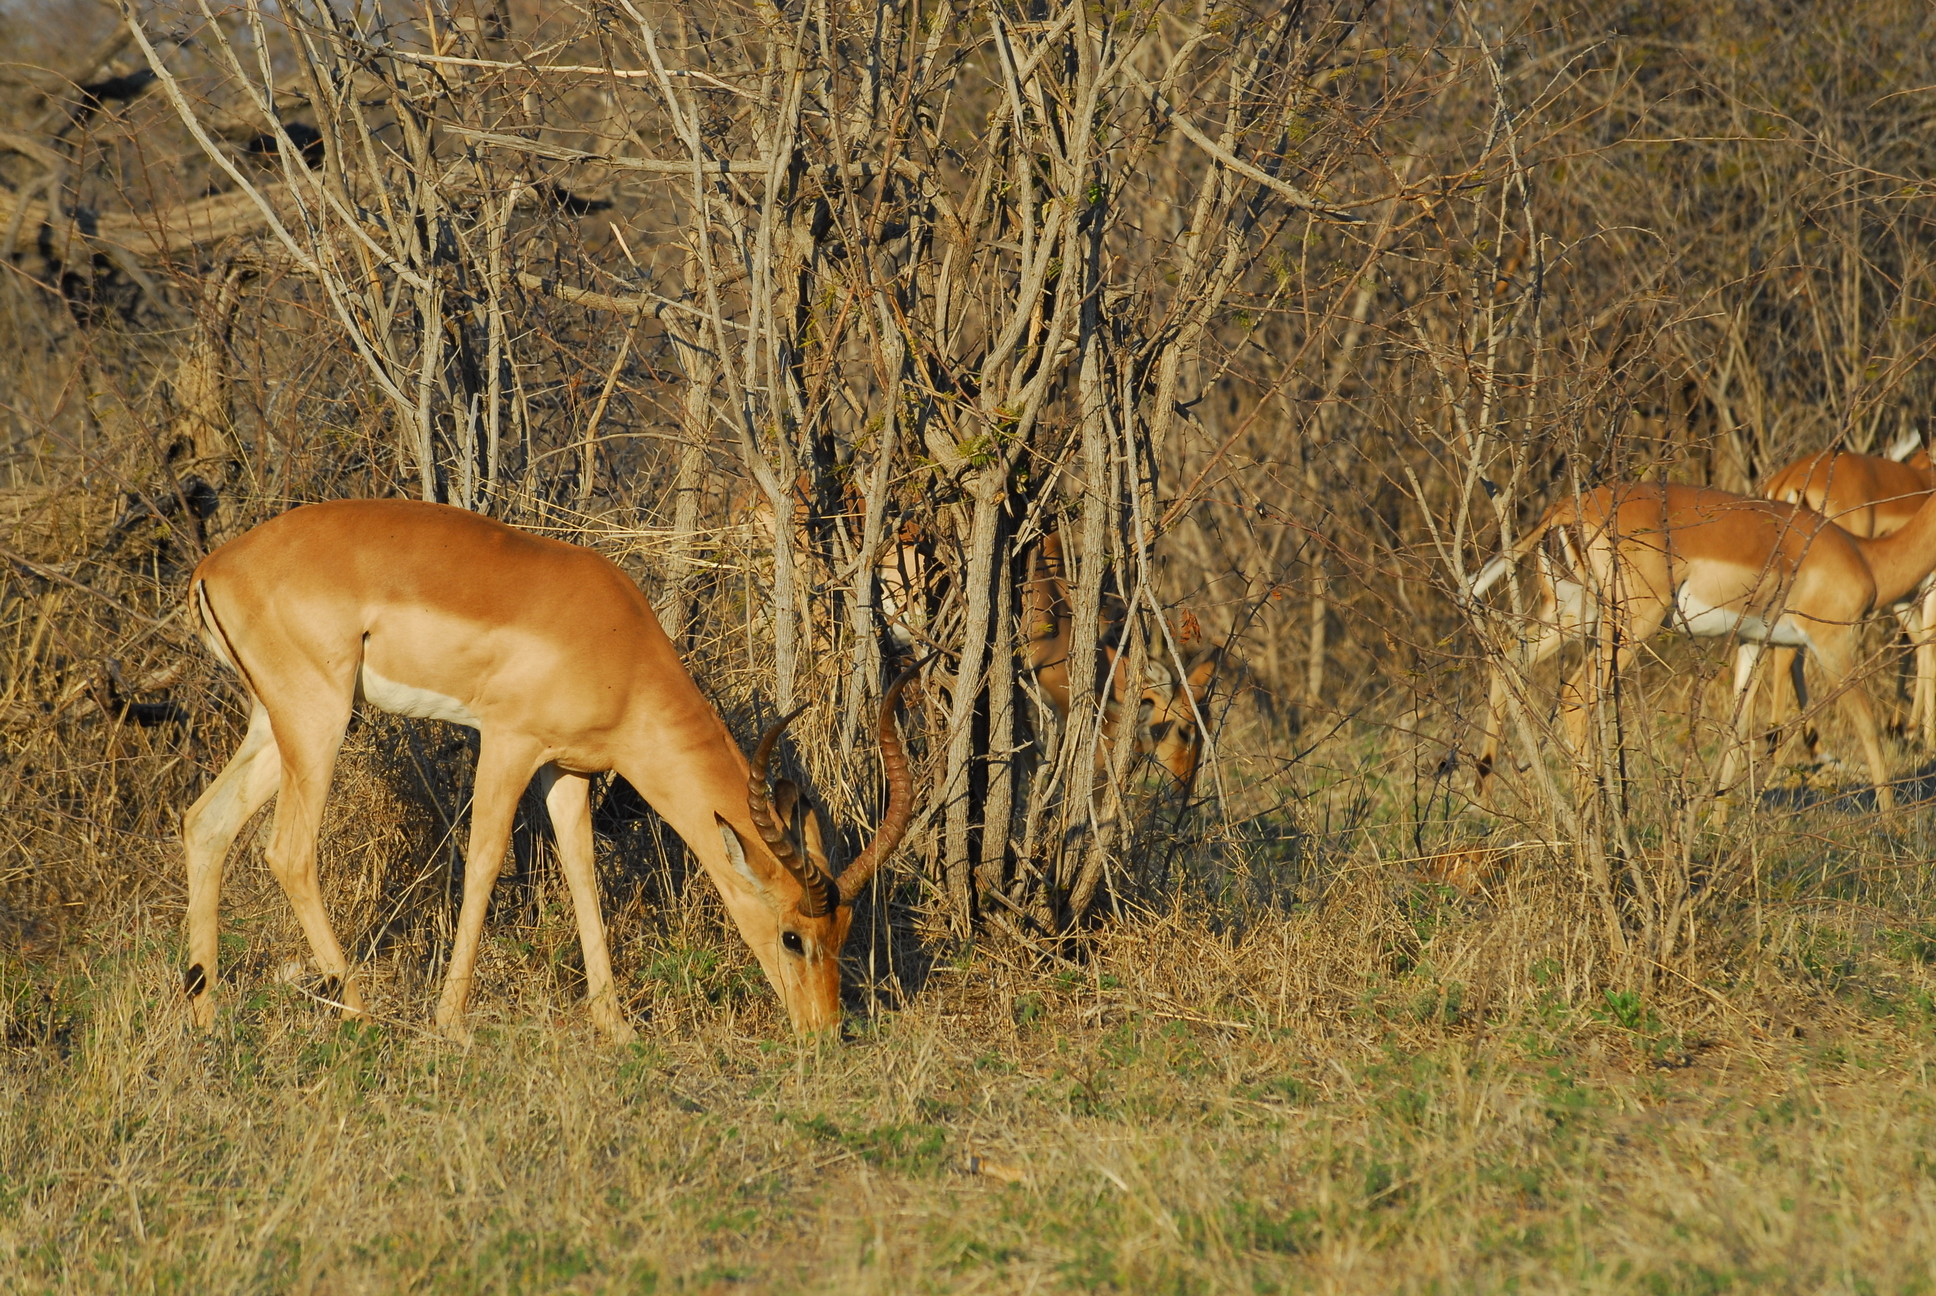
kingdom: Animalia
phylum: Chordata
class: Mammalia
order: Artiodactyla
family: Bovidae
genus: Aepyceros
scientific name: Aepyceros melampus
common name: Impala
